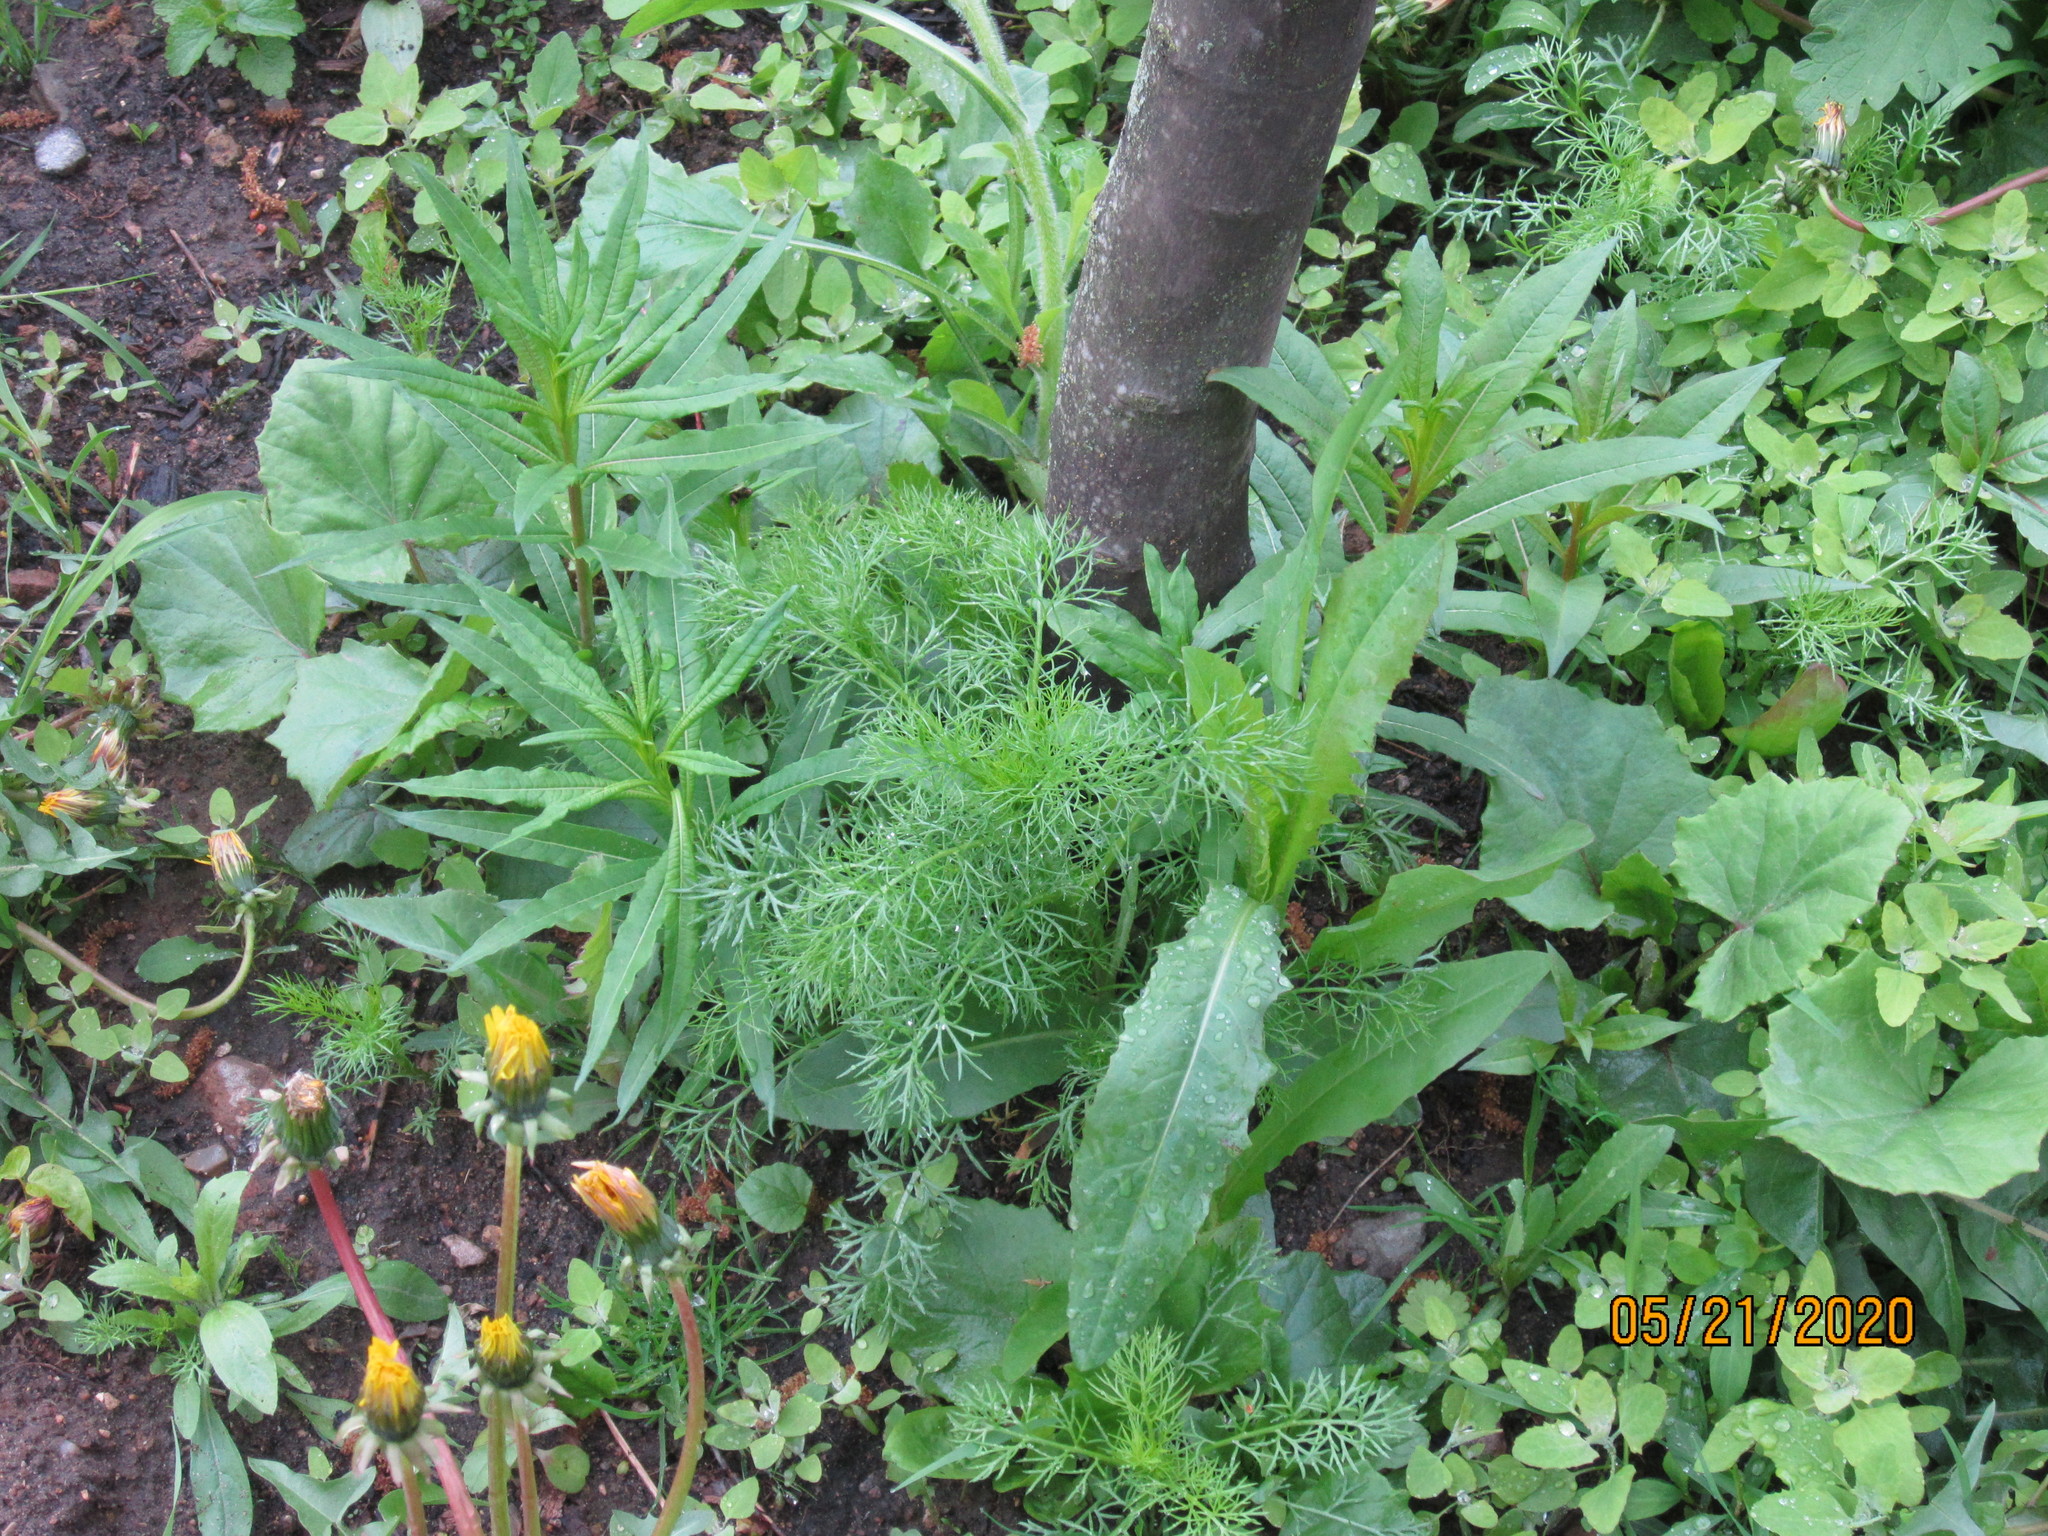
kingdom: Plantae
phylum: Tracheophyta
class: Magnoliopsida
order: Asterales
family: Asteraceae
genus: Tripleurospermum
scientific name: Tripleurospermum inodorum
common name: Scentless mayweed
